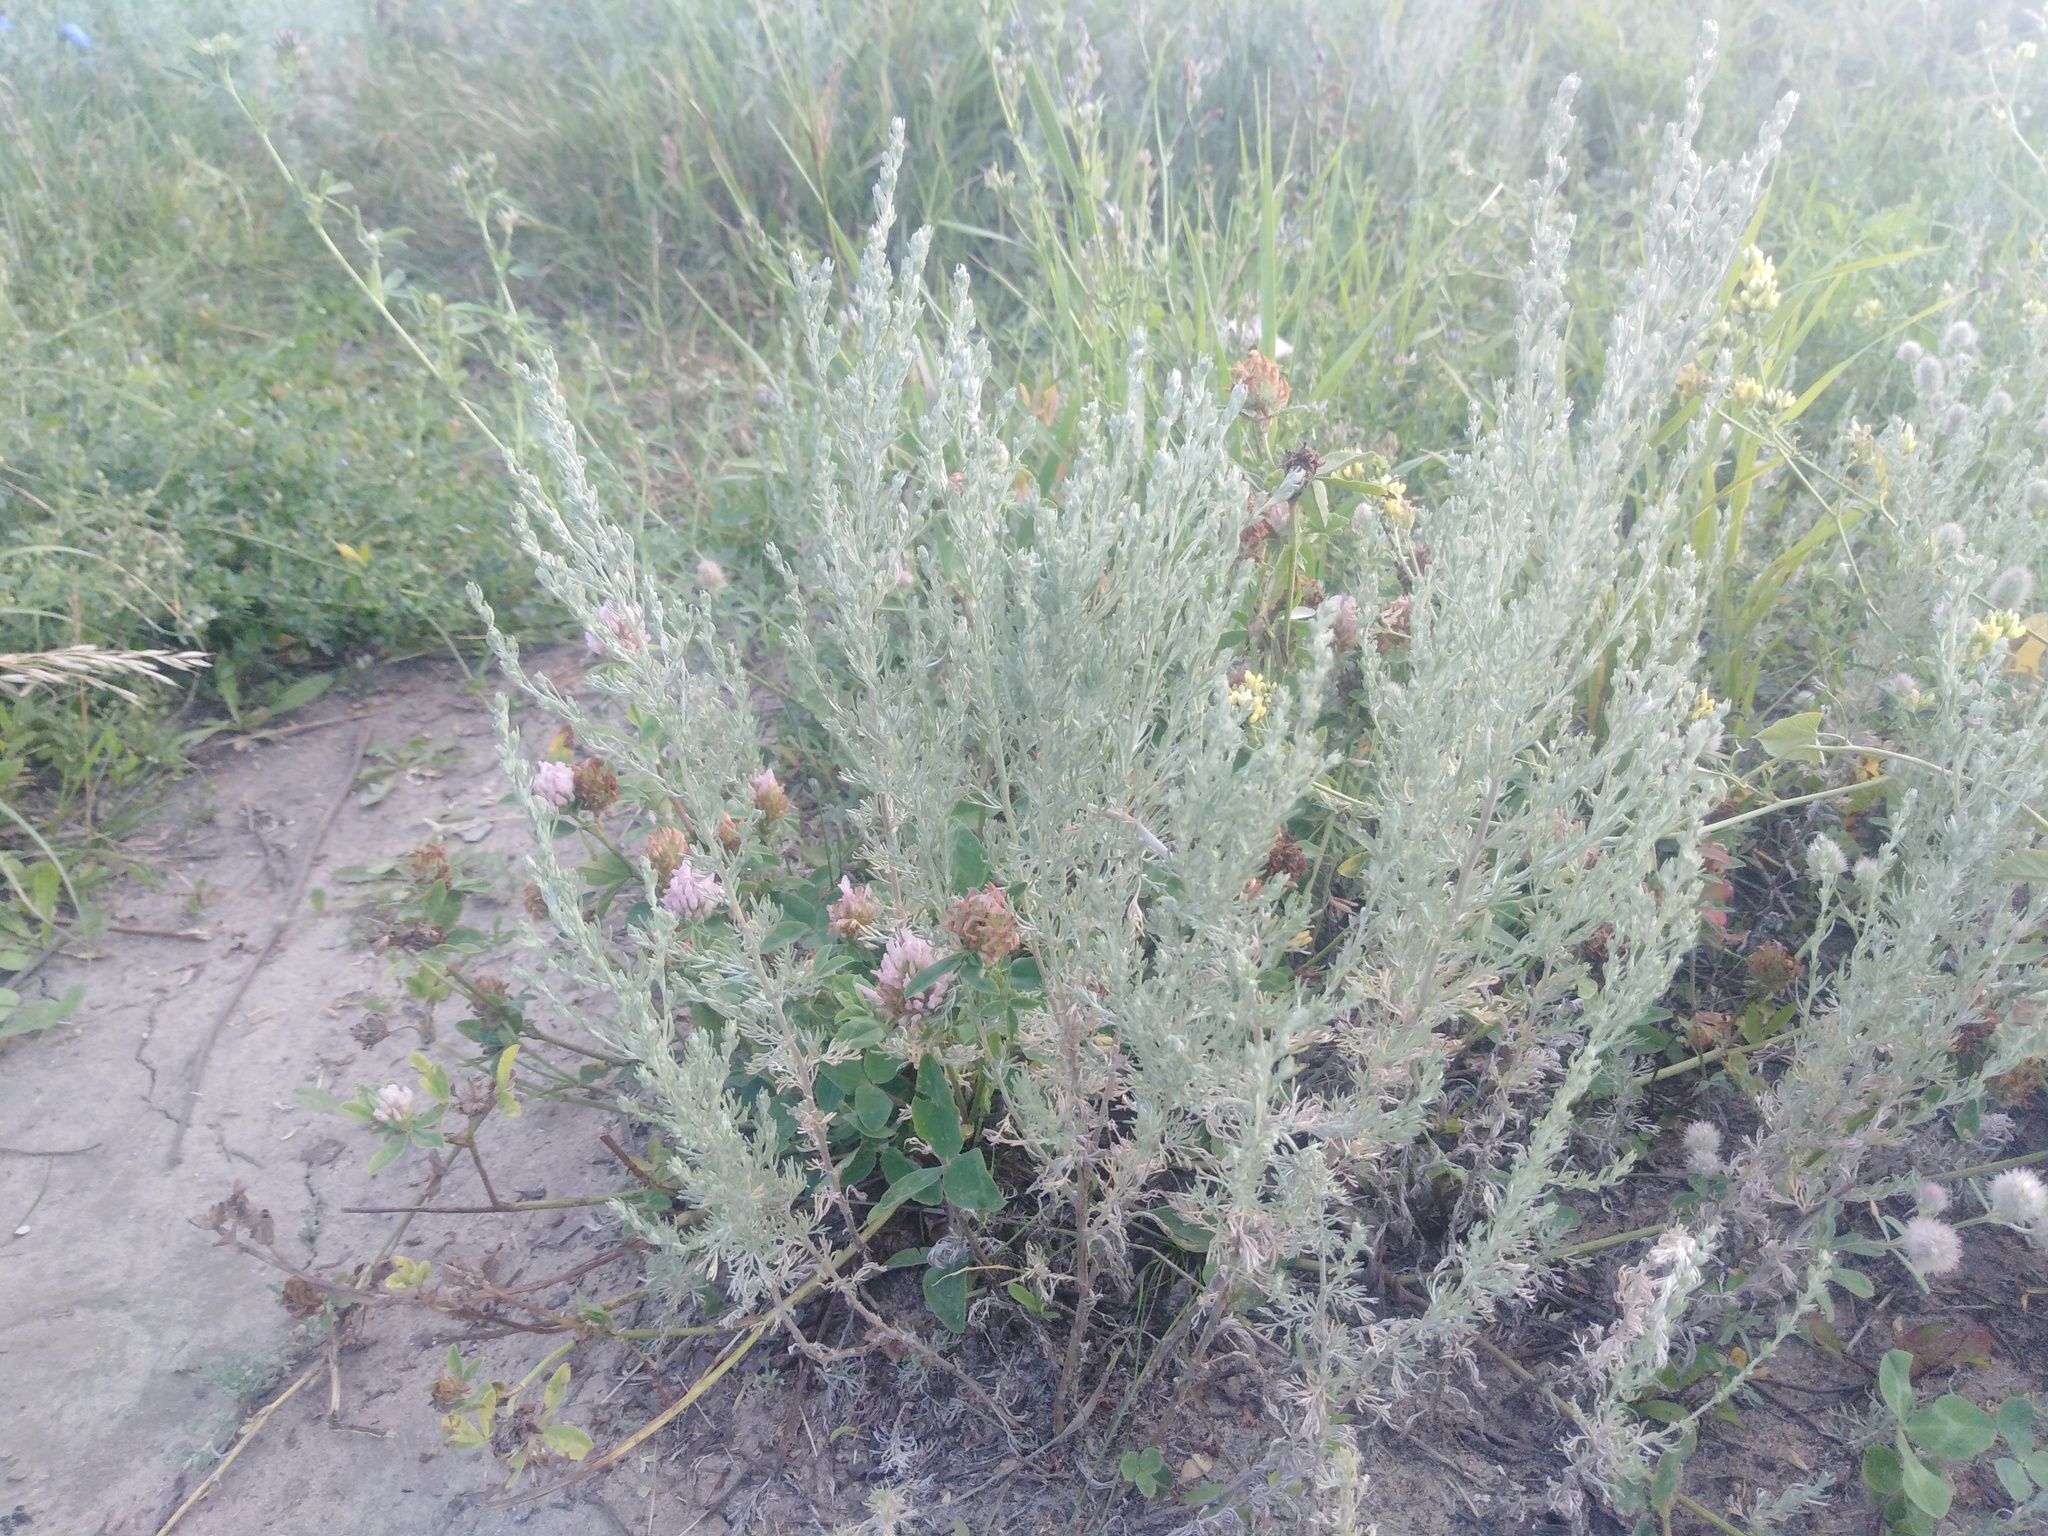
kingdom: Plantae
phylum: Tracheophyta
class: Magnoliopsida
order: Asterales
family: Asteraceae
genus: Artemisia
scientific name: Artemisia austriaca
